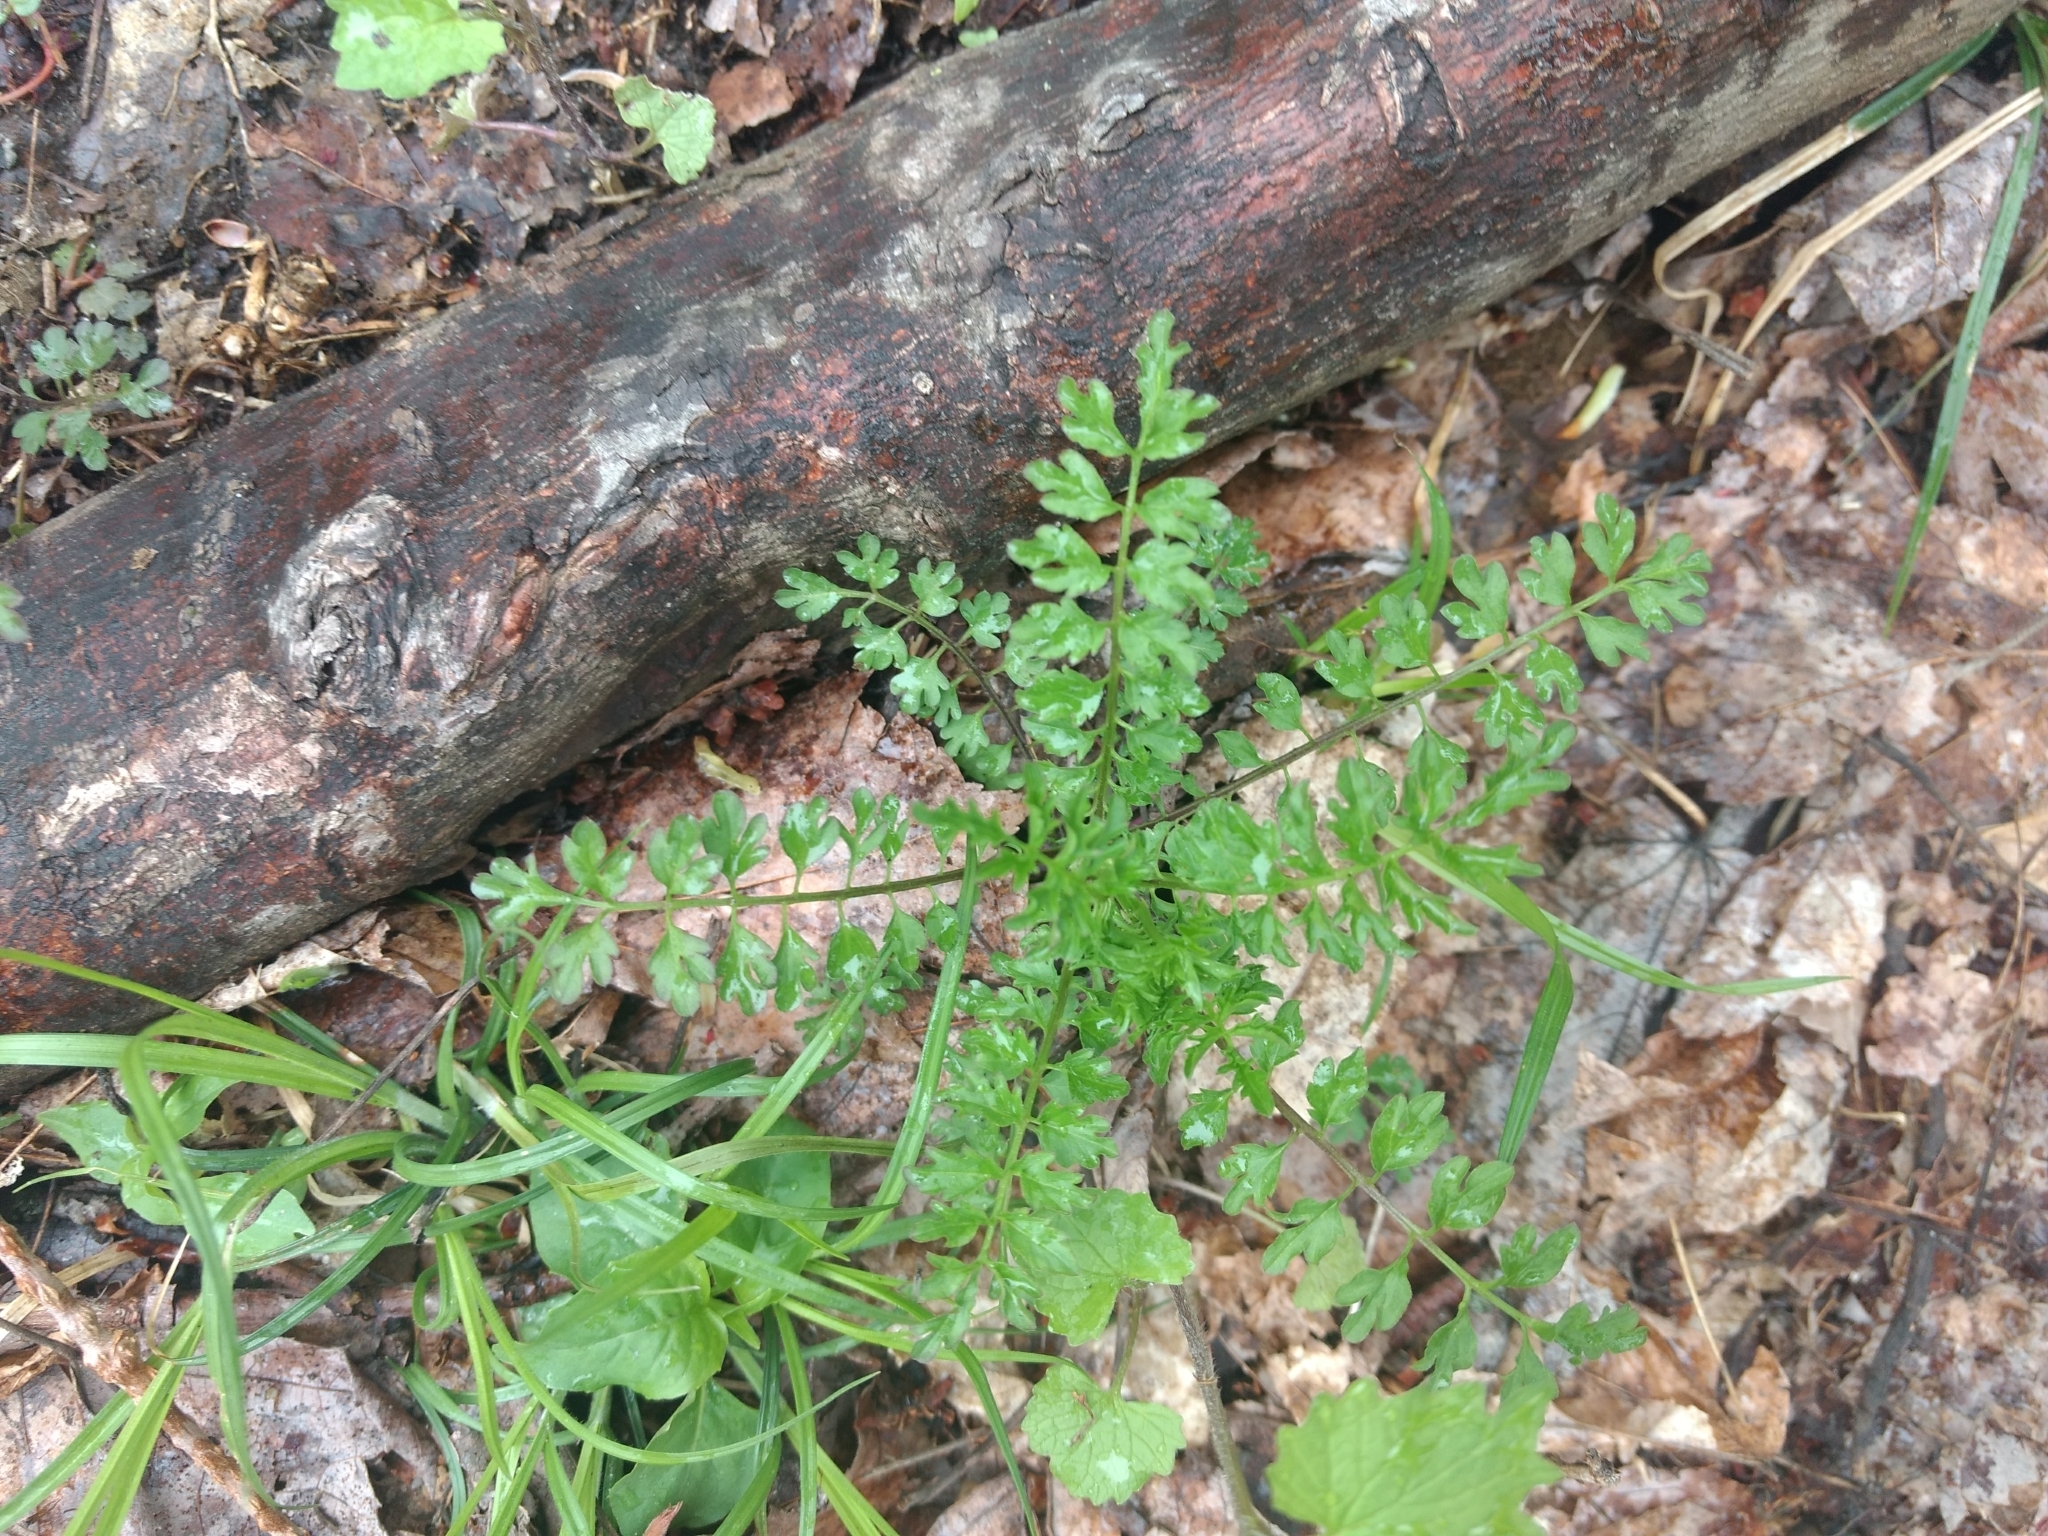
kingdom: Plantae
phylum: Tracheophyta
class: Magnoliopsida
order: Brassicales
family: Brassicaceae
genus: Cardamine
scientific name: Cardamine impatiens
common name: Narrow-leaved bitter-cress
